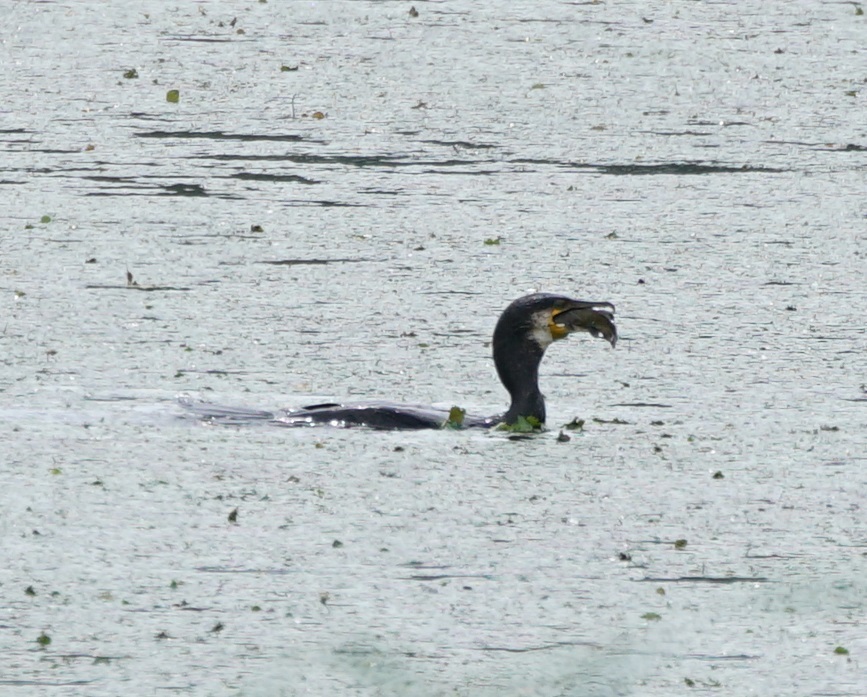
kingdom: Animalia
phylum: Chordata
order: Siluriformes
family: Ictaluridae
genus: Ameiurus
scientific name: Ameiurus melas
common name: Black bullhead
